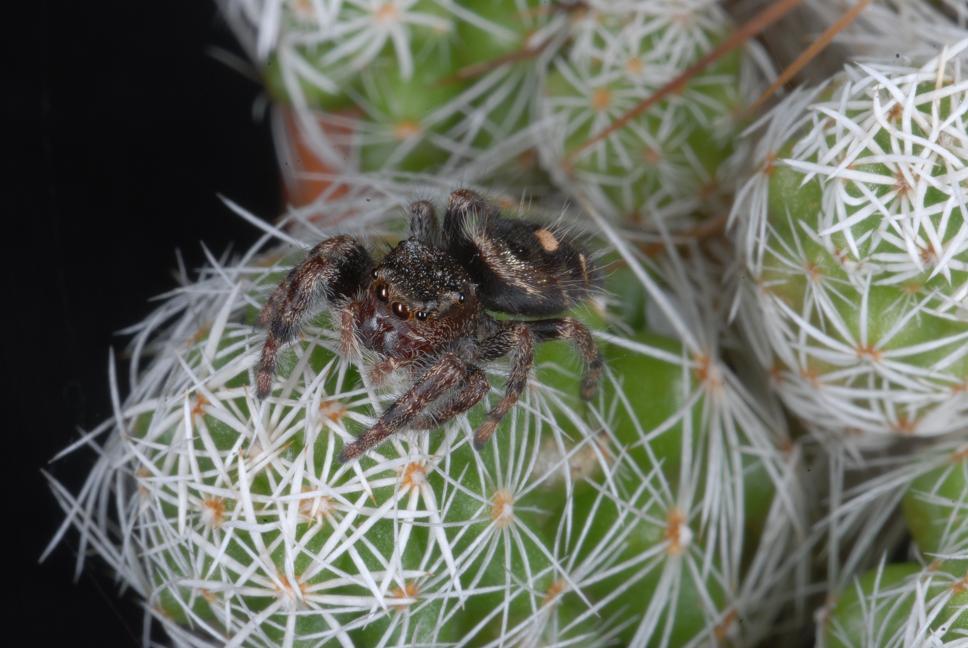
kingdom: Animalia
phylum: Arthropoda
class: Arachnida
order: Araneae
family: Salticidae
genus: Phidippus
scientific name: Phidippus audax
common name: Bold jumper
